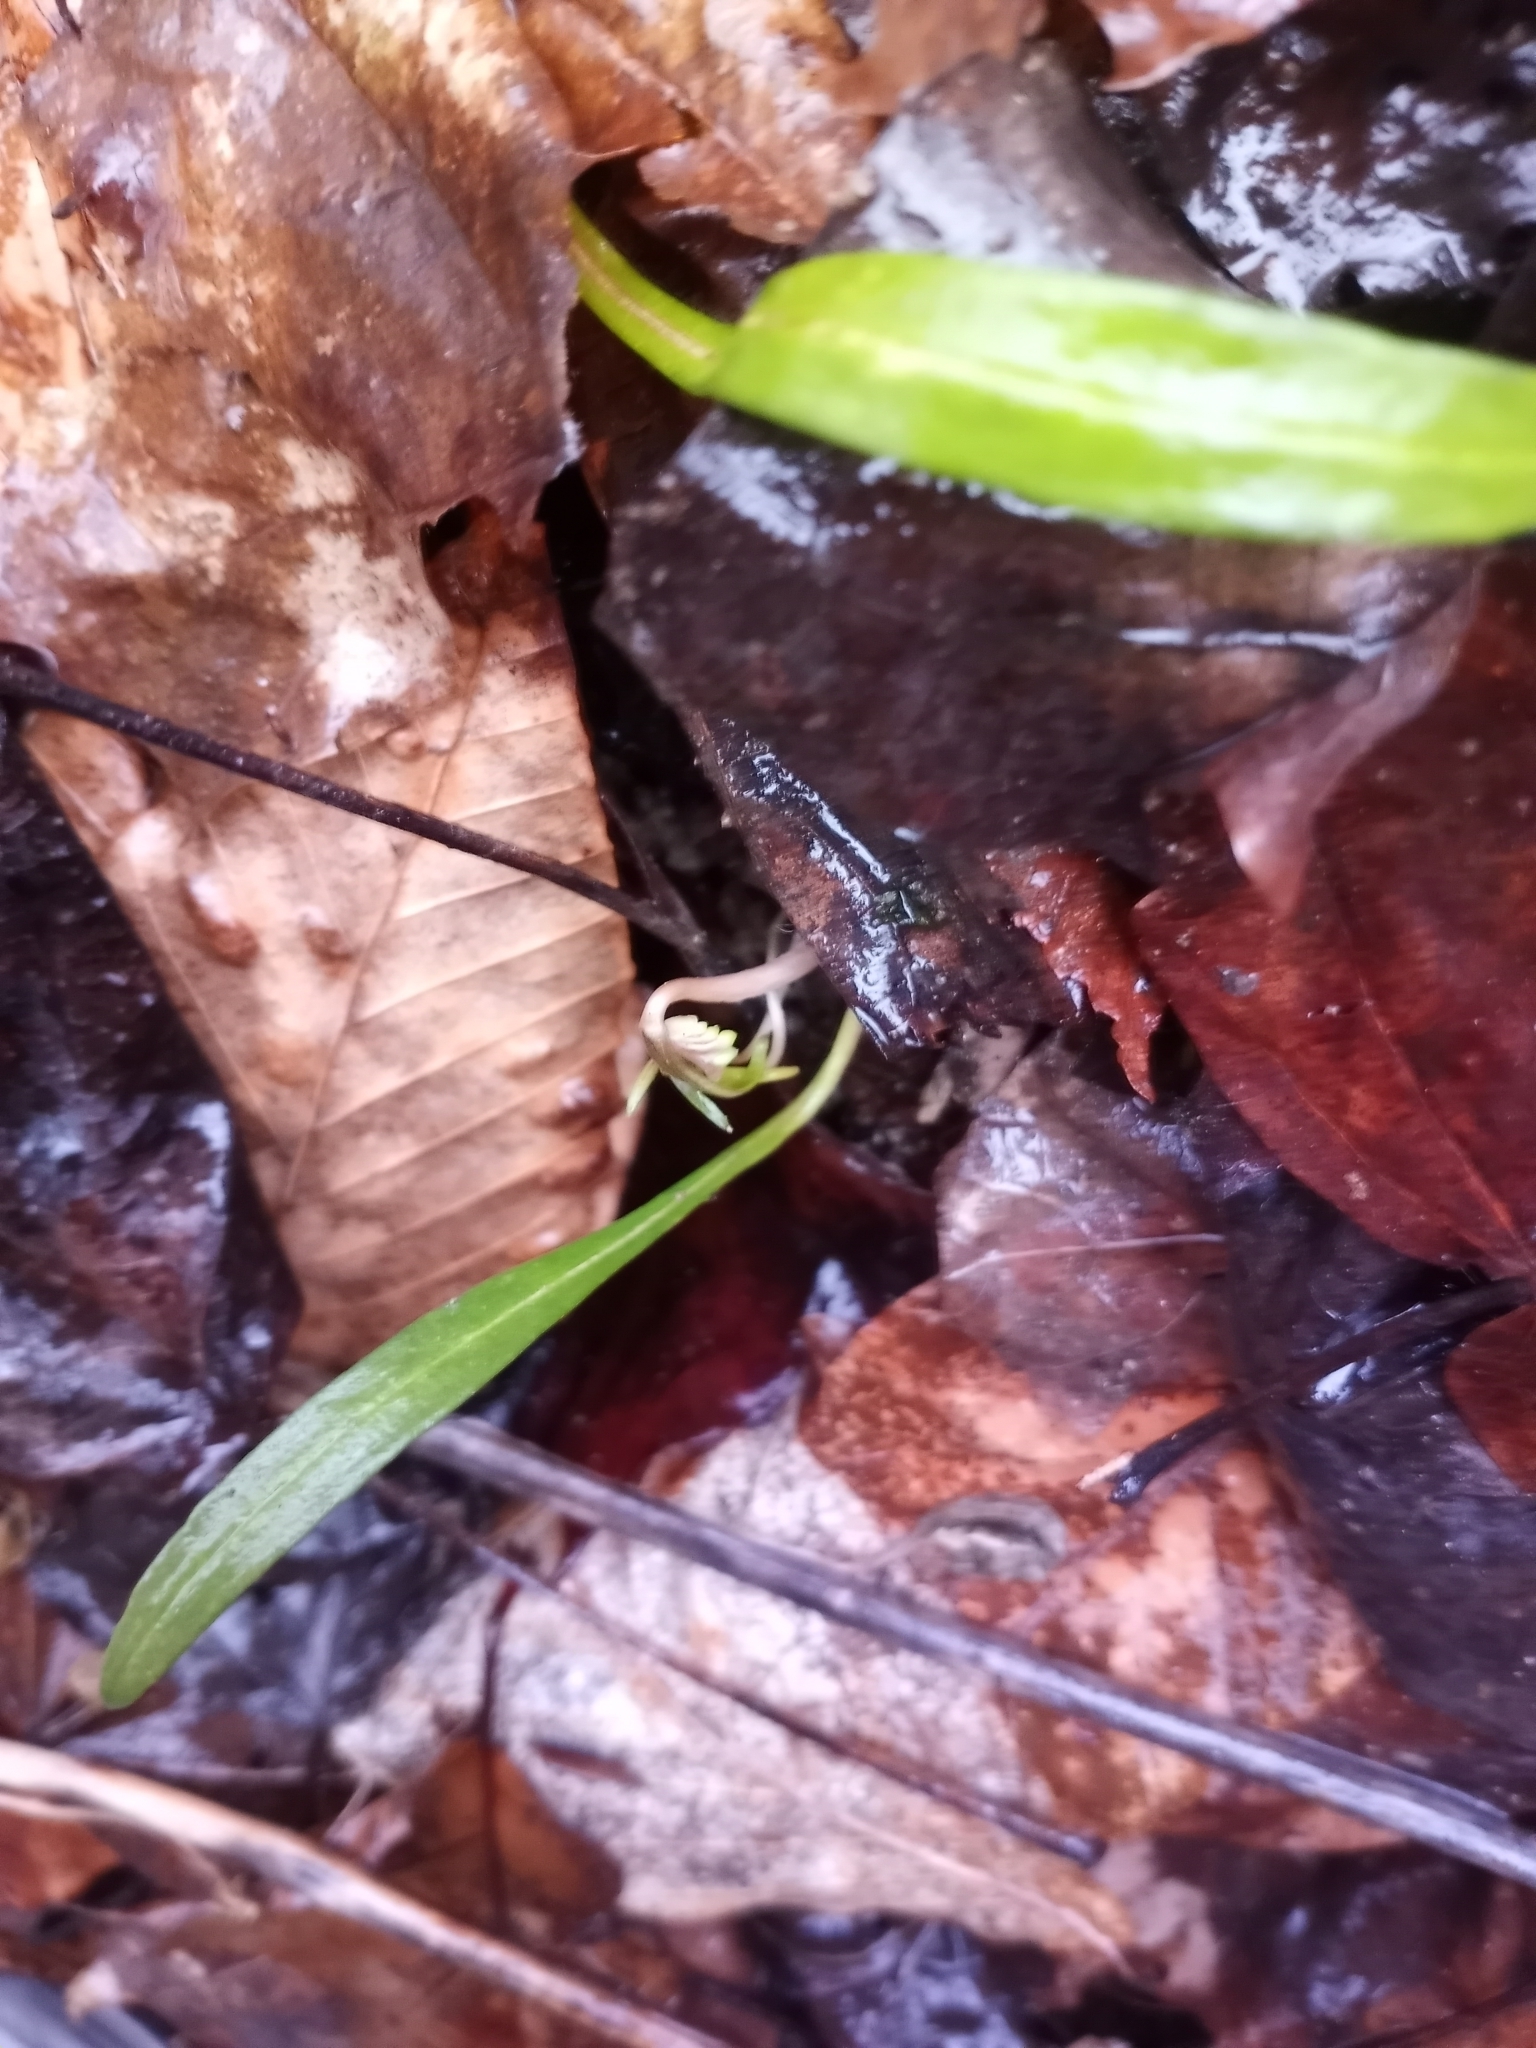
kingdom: Plantae
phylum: Tracheophyta
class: Magnoliopsida
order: Caryophyllales
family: Montiaceae
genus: Claytonia
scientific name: Claytonia virginica
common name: Virginia springbeauty
